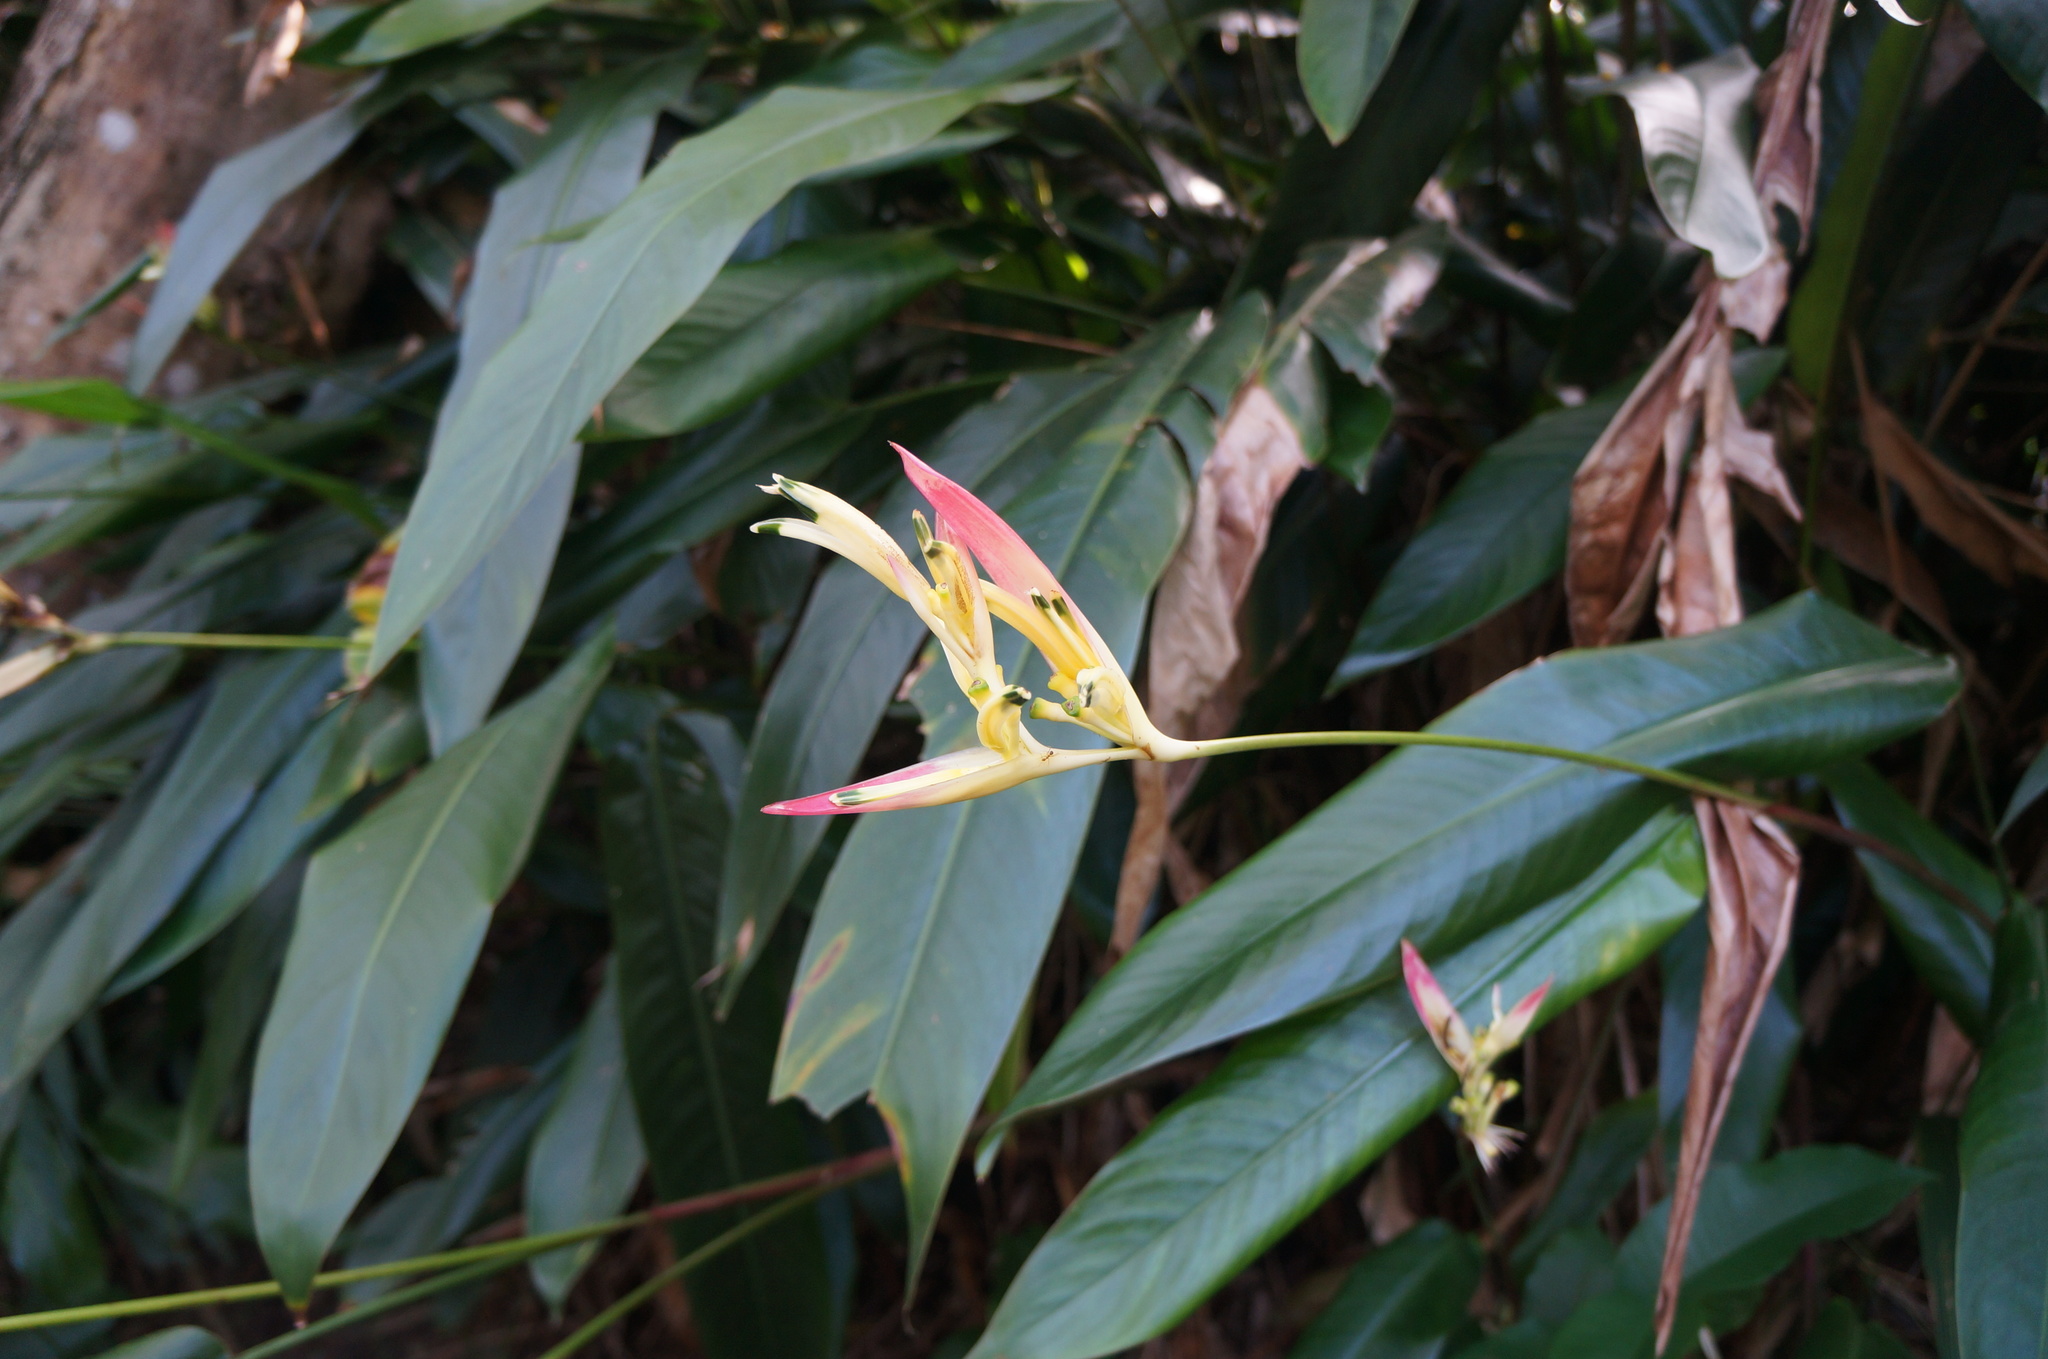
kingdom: Plantae
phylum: Tracheophyta
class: Liliopsida
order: Zingiberales
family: Heliconiaceae
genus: Heliconia
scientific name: Heliconia psittacorum
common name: Parrot's-flower
